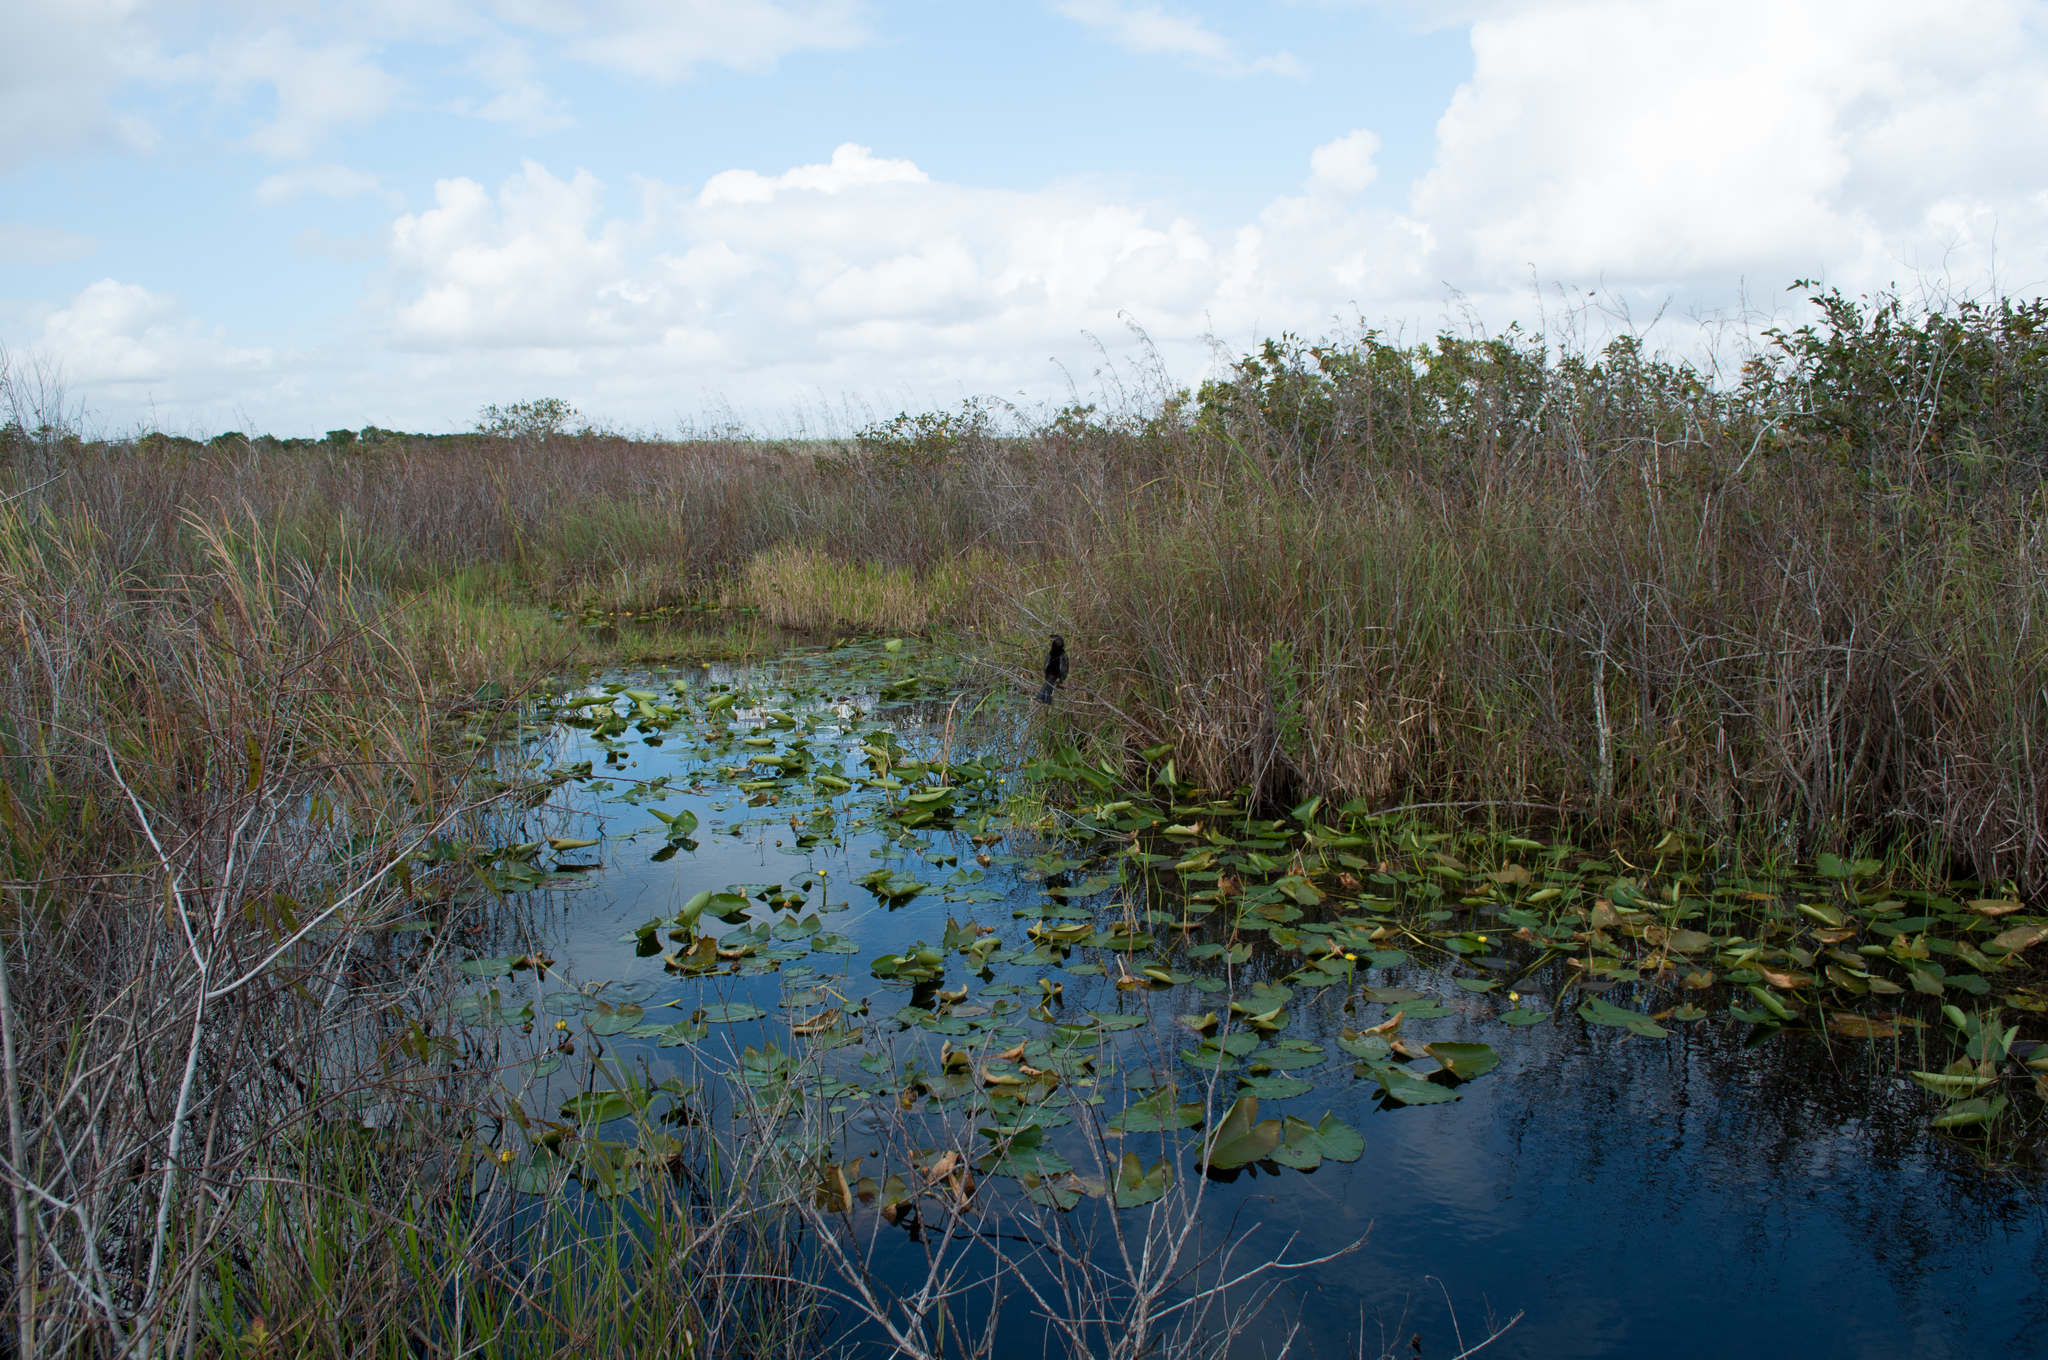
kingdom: Animalia
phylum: Chordata
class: Aves
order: Suliformes
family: Anhingidae
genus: Anhinga
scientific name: Anhinga anhinga
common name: Anhinga
